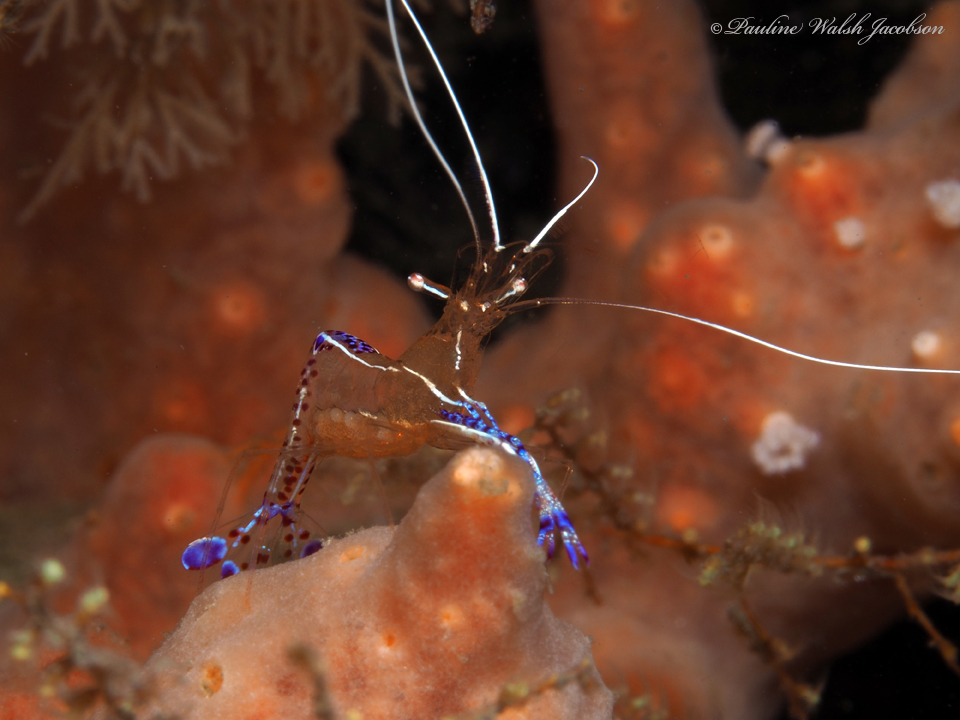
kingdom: Animalia
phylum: Arthropoda
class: Malacostraca
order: Decapoda
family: Palaemonidae
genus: Ancylomenes
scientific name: Ancylomenes pedersoni
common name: Pederson's cleaning shrimp
